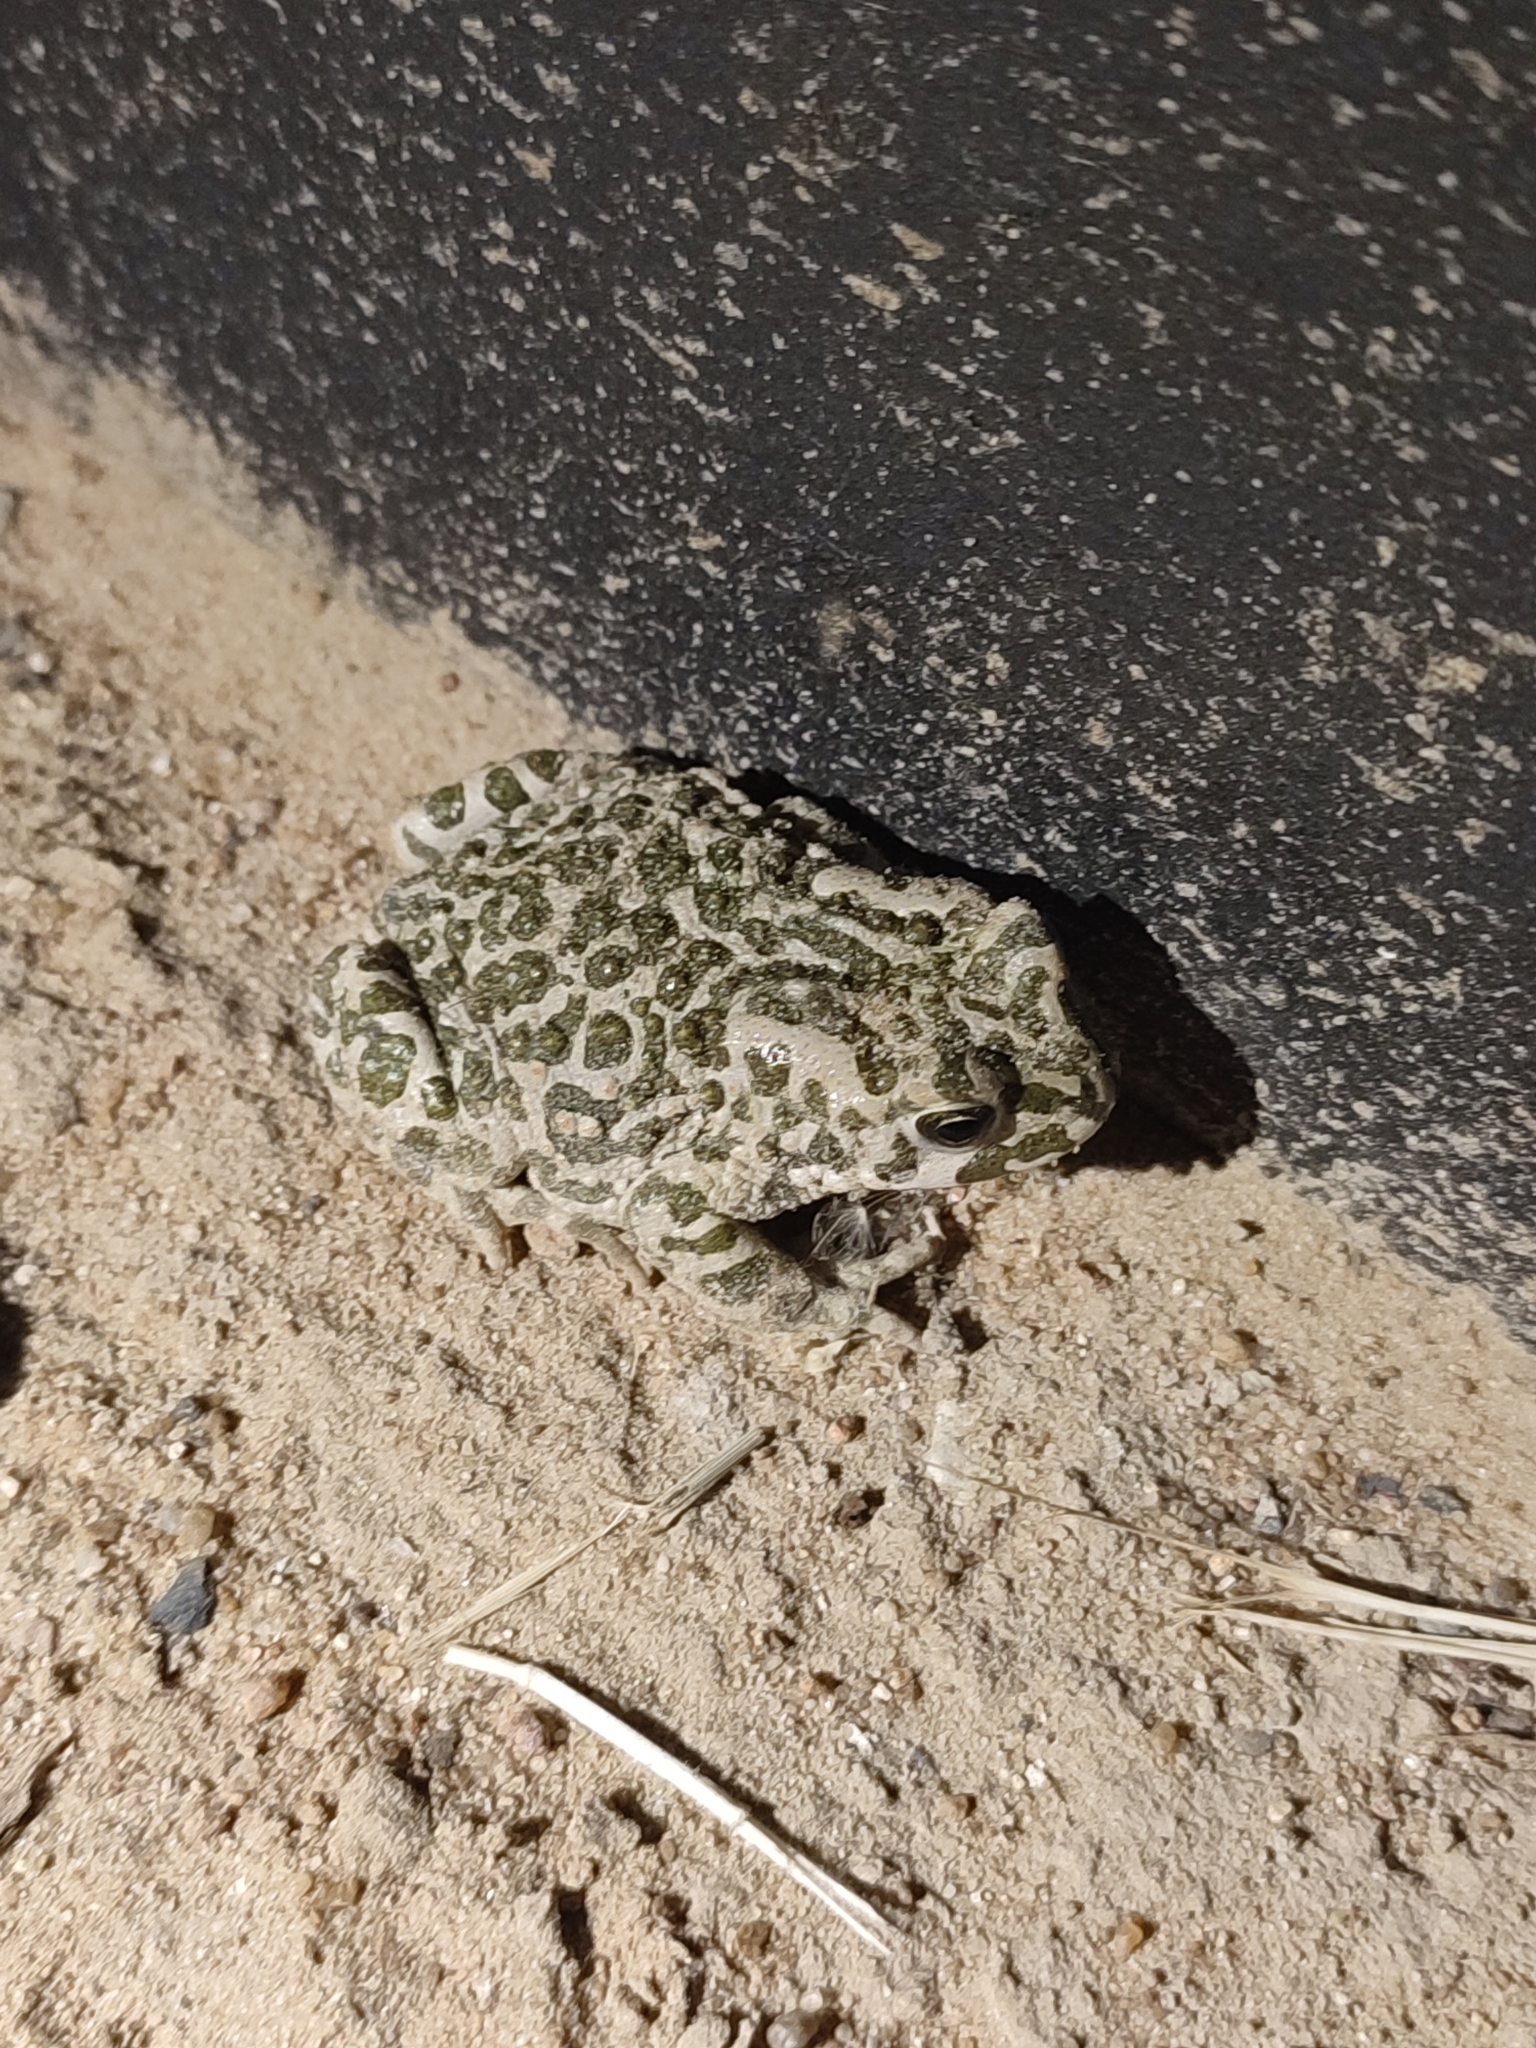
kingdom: Animalia
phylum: Chordata
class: Amphibia
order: Anura
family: Bufonidae
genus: Bufotes
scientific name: Bufotes viridis
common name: European green toad
